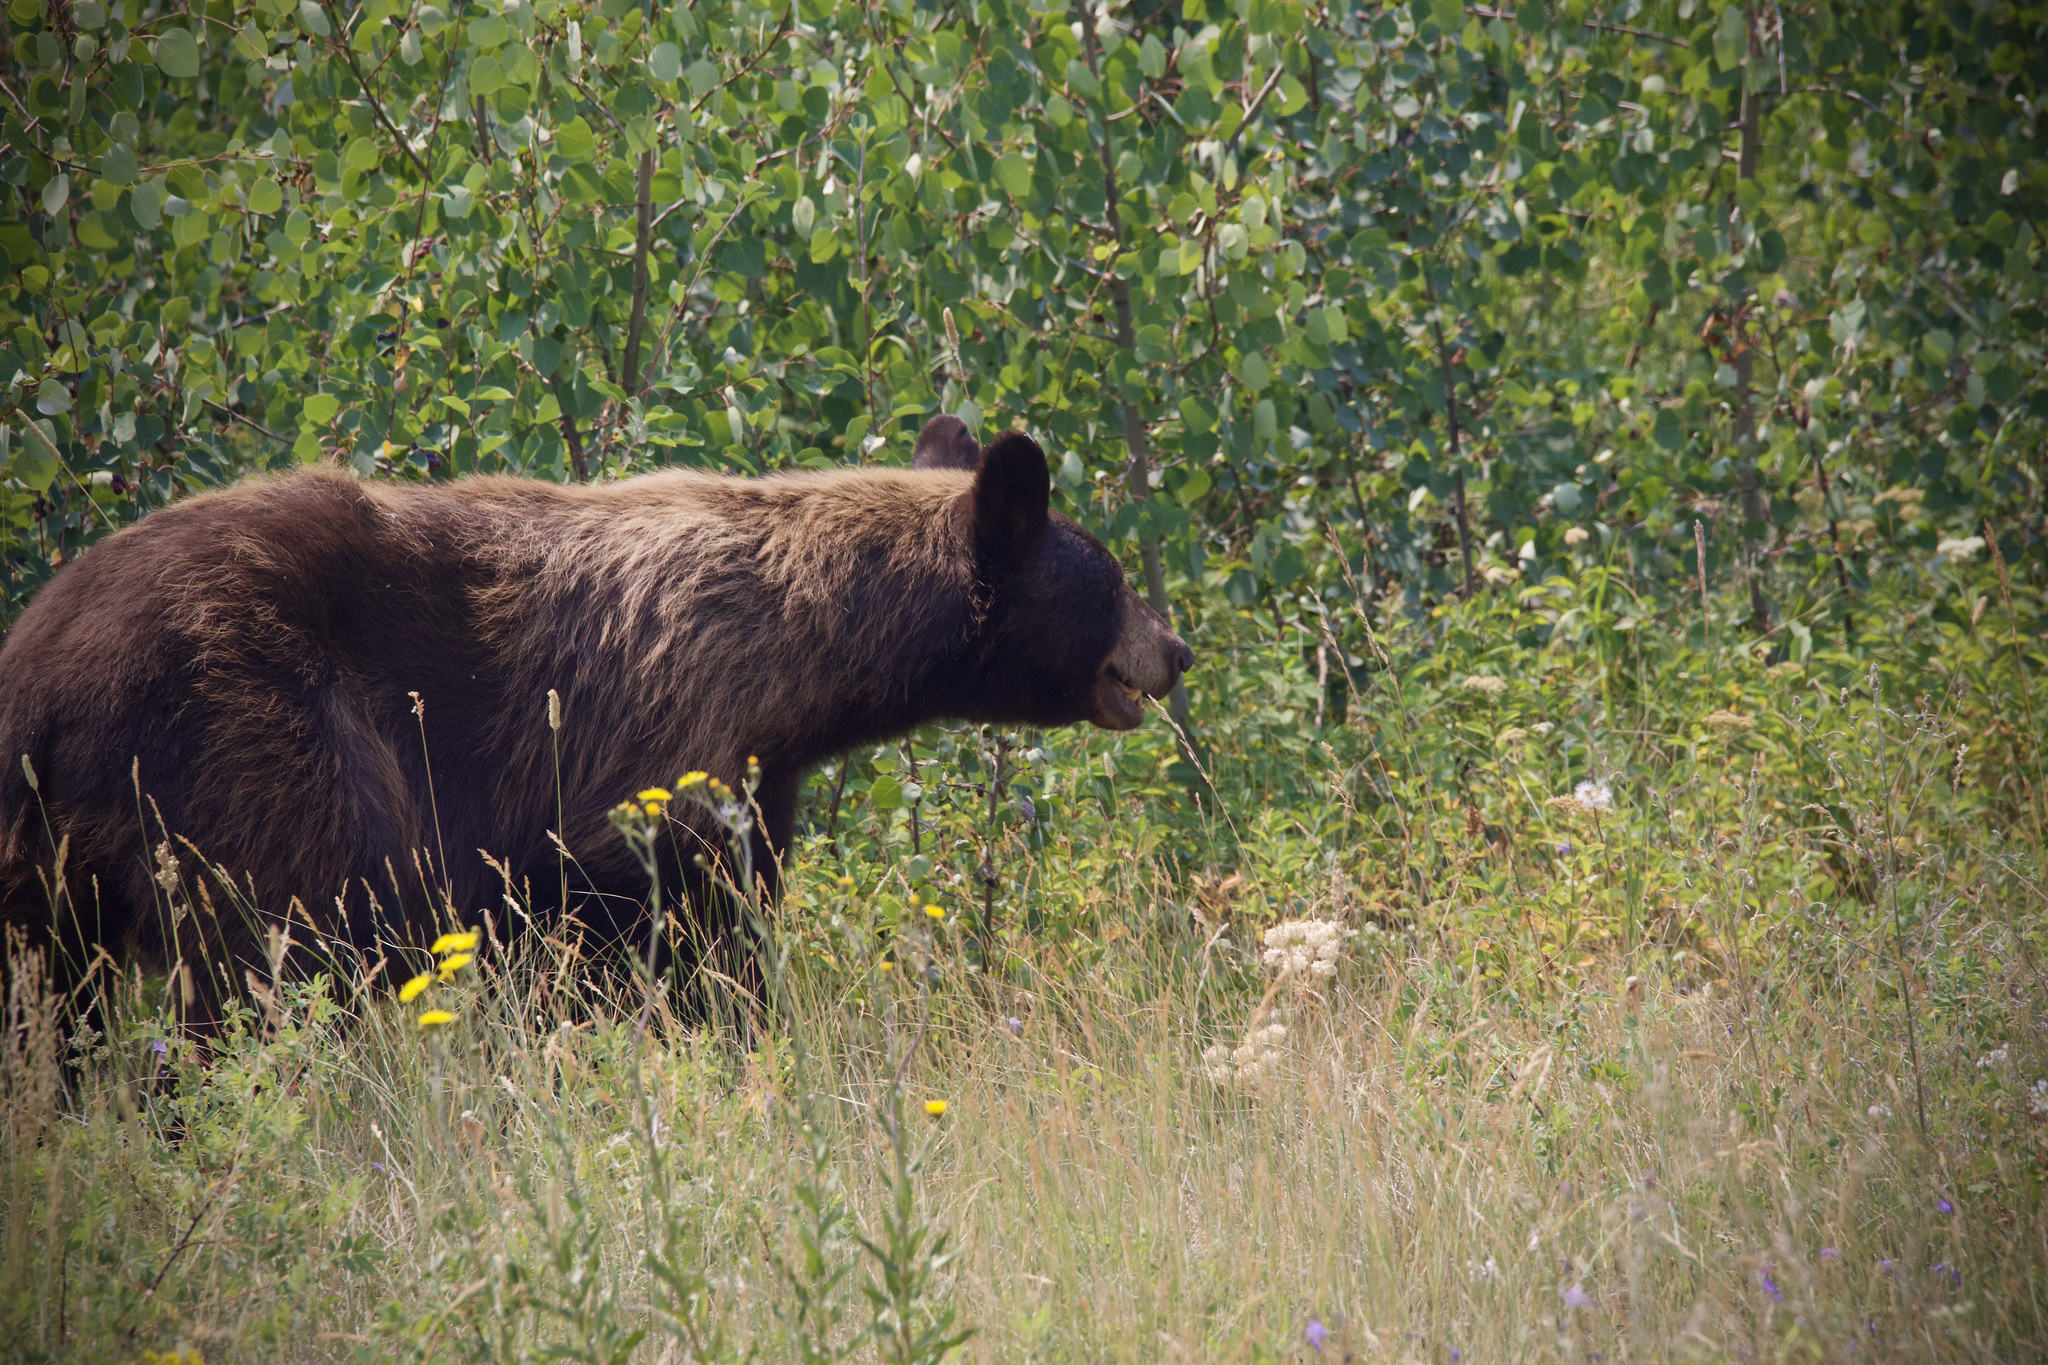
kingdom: Animalia
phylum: Chordata
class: Mammalia
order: Carnivora
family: Ursidae
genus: Ursus
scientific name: Ursus americanus
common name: American black bear
